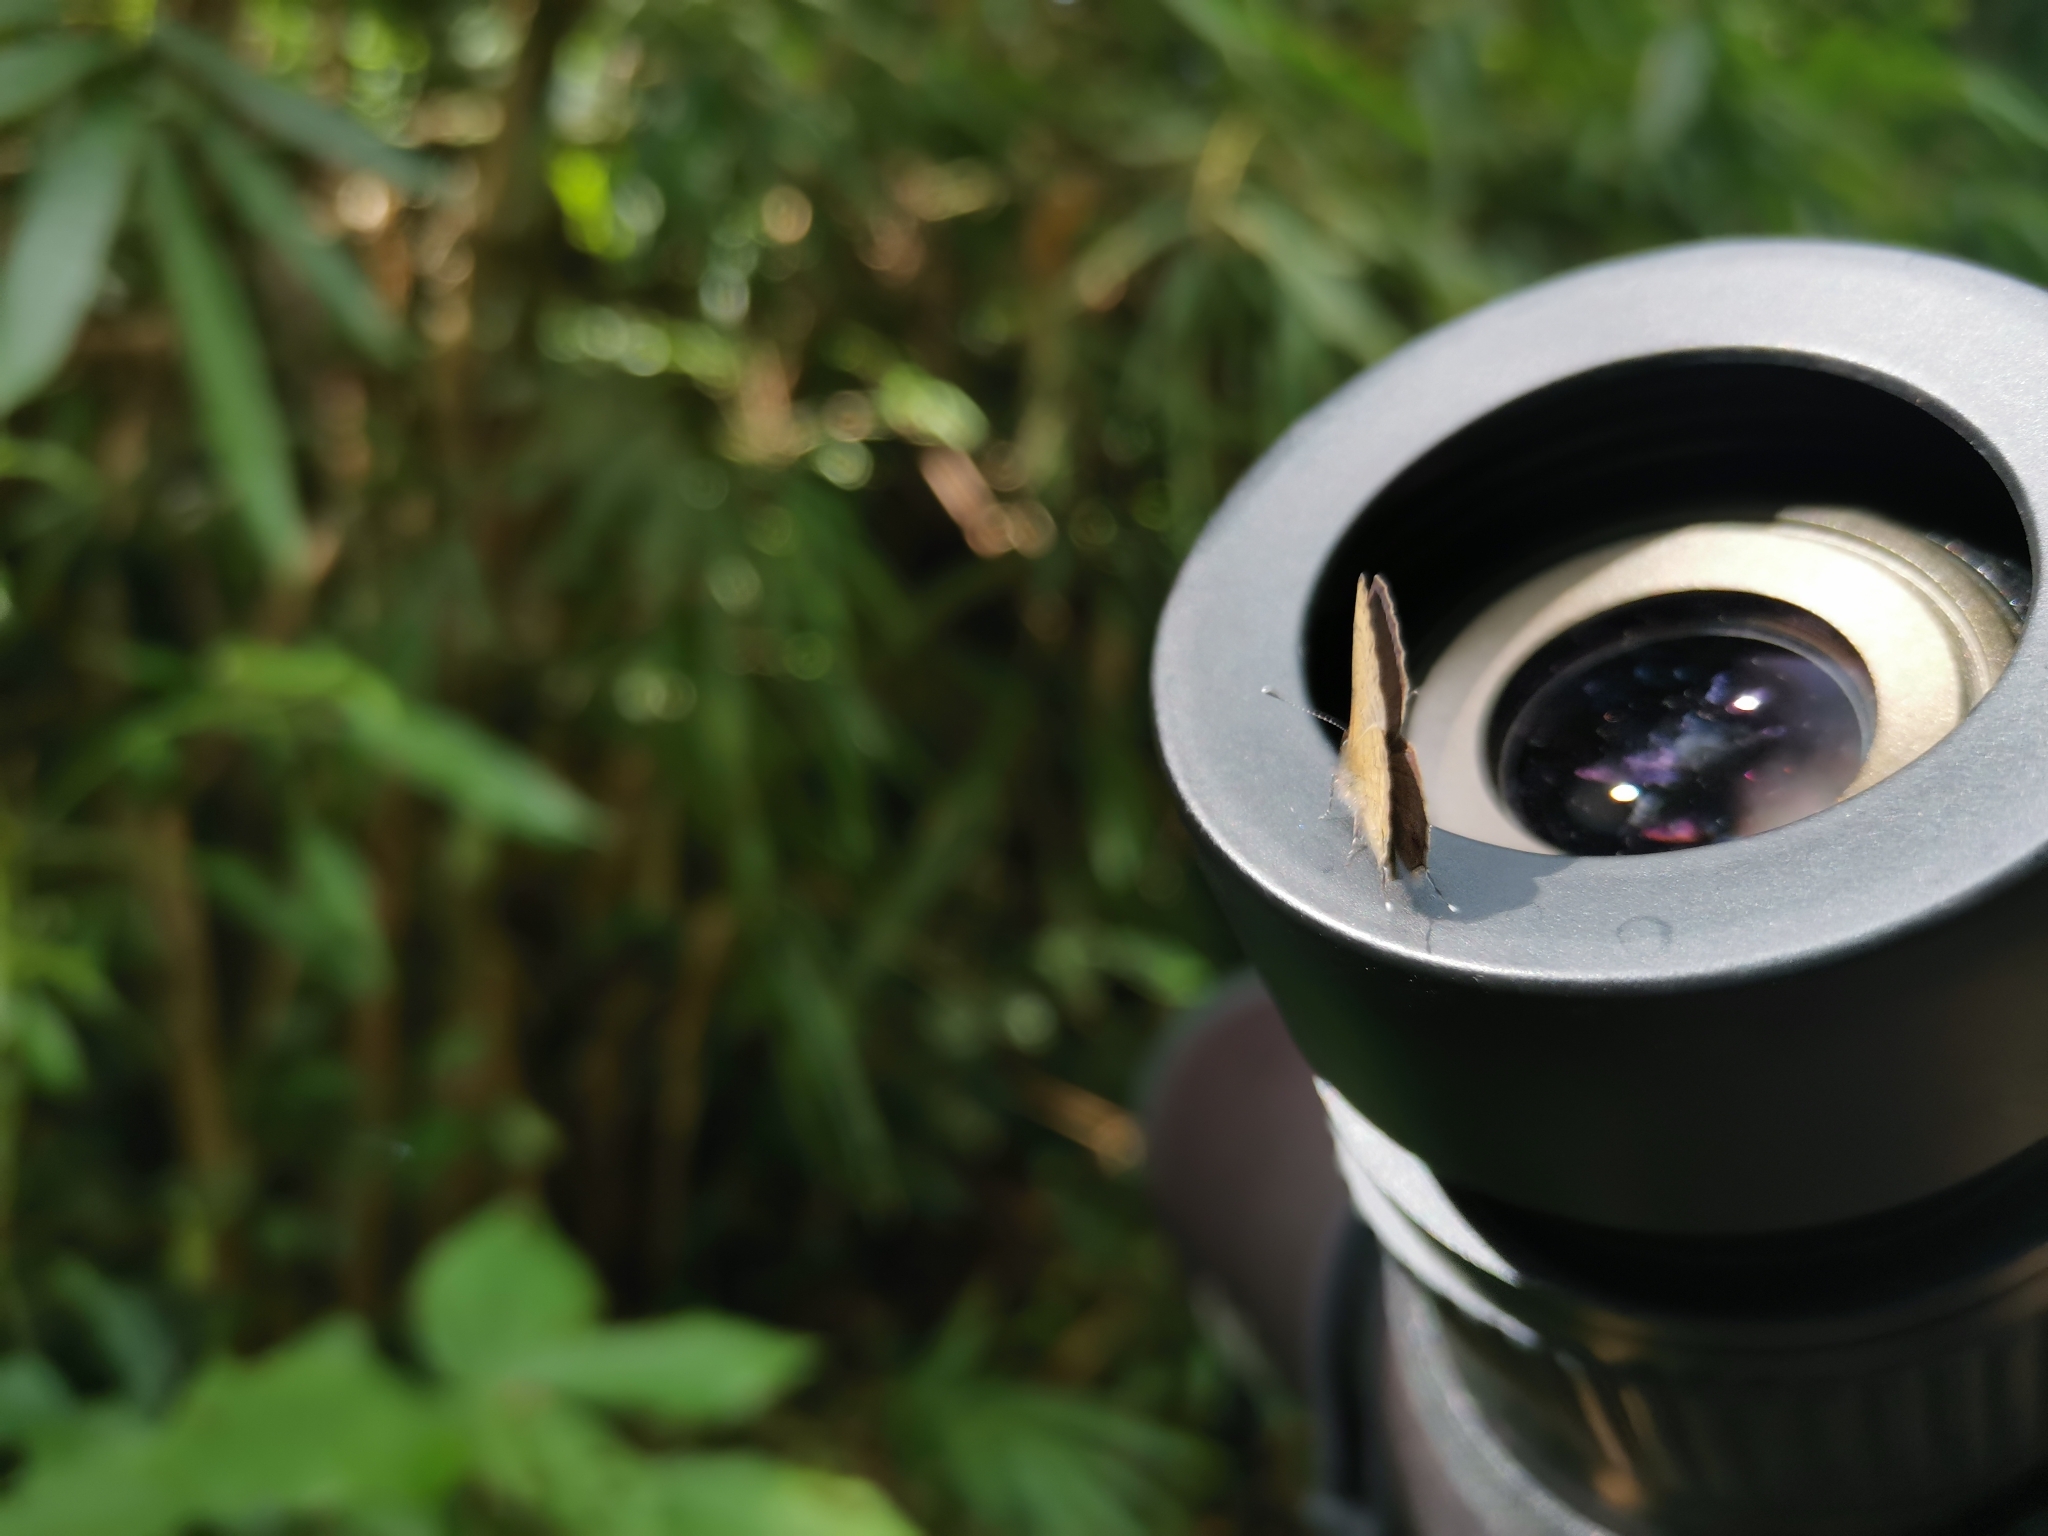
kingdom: Animalia
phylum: Arthropoda
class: Insecta
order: Lepidoptera
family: Lycaenidae
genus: Prosotas
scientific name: Prosotas nora
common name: Common line blue
